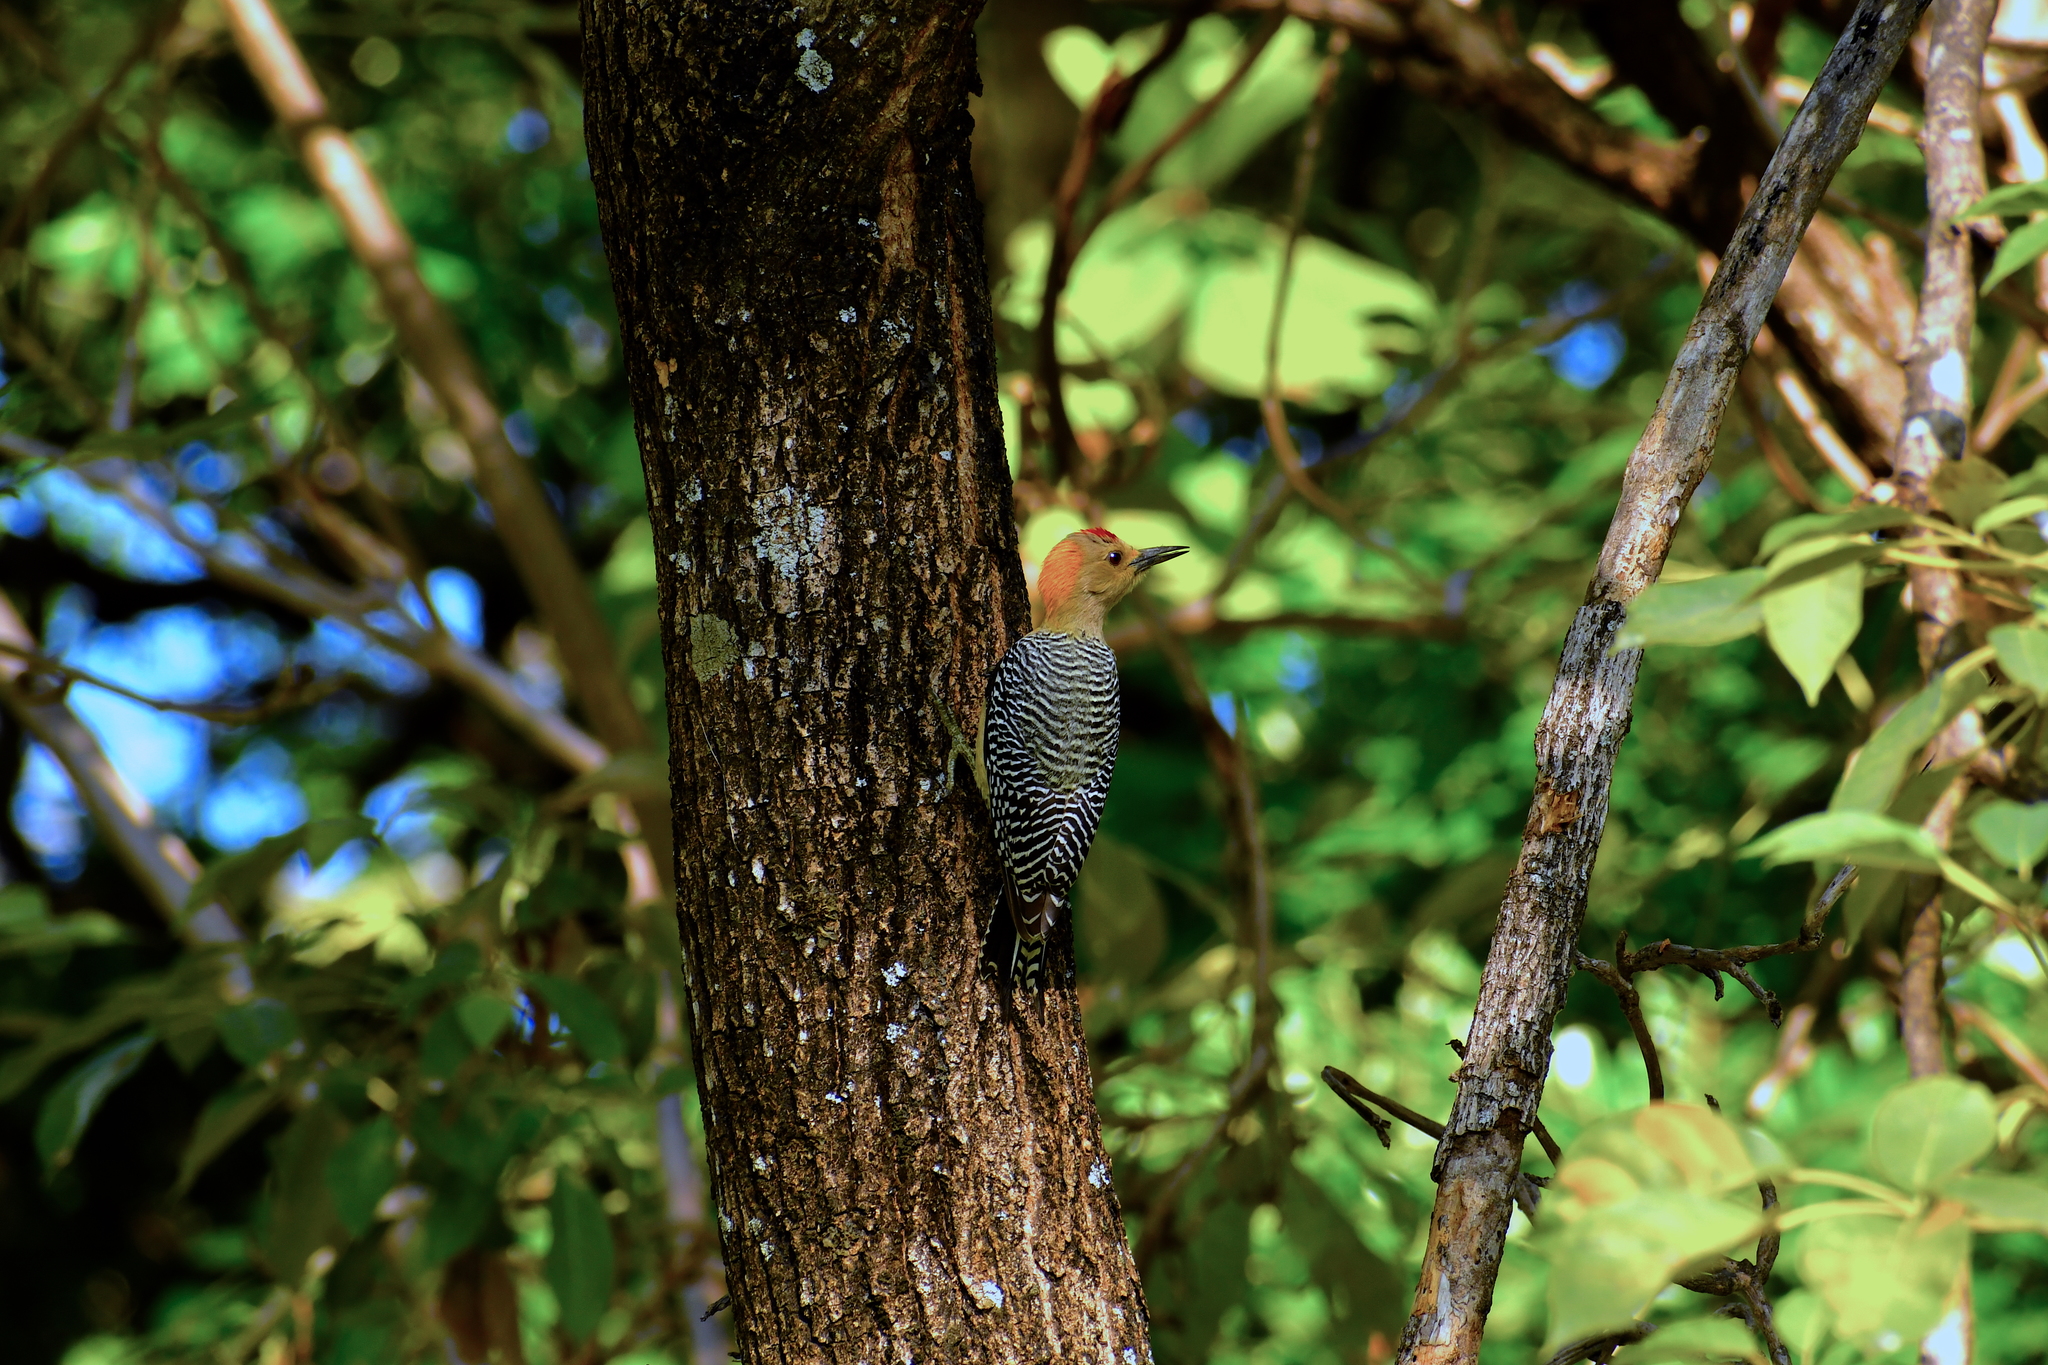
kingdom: Animalia
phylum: Chordata
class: Aves
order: Piciformes
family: Picidae
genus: Melanerpes
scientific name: Melanerpes aurifrons
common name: Golden-fronted woodpecker
